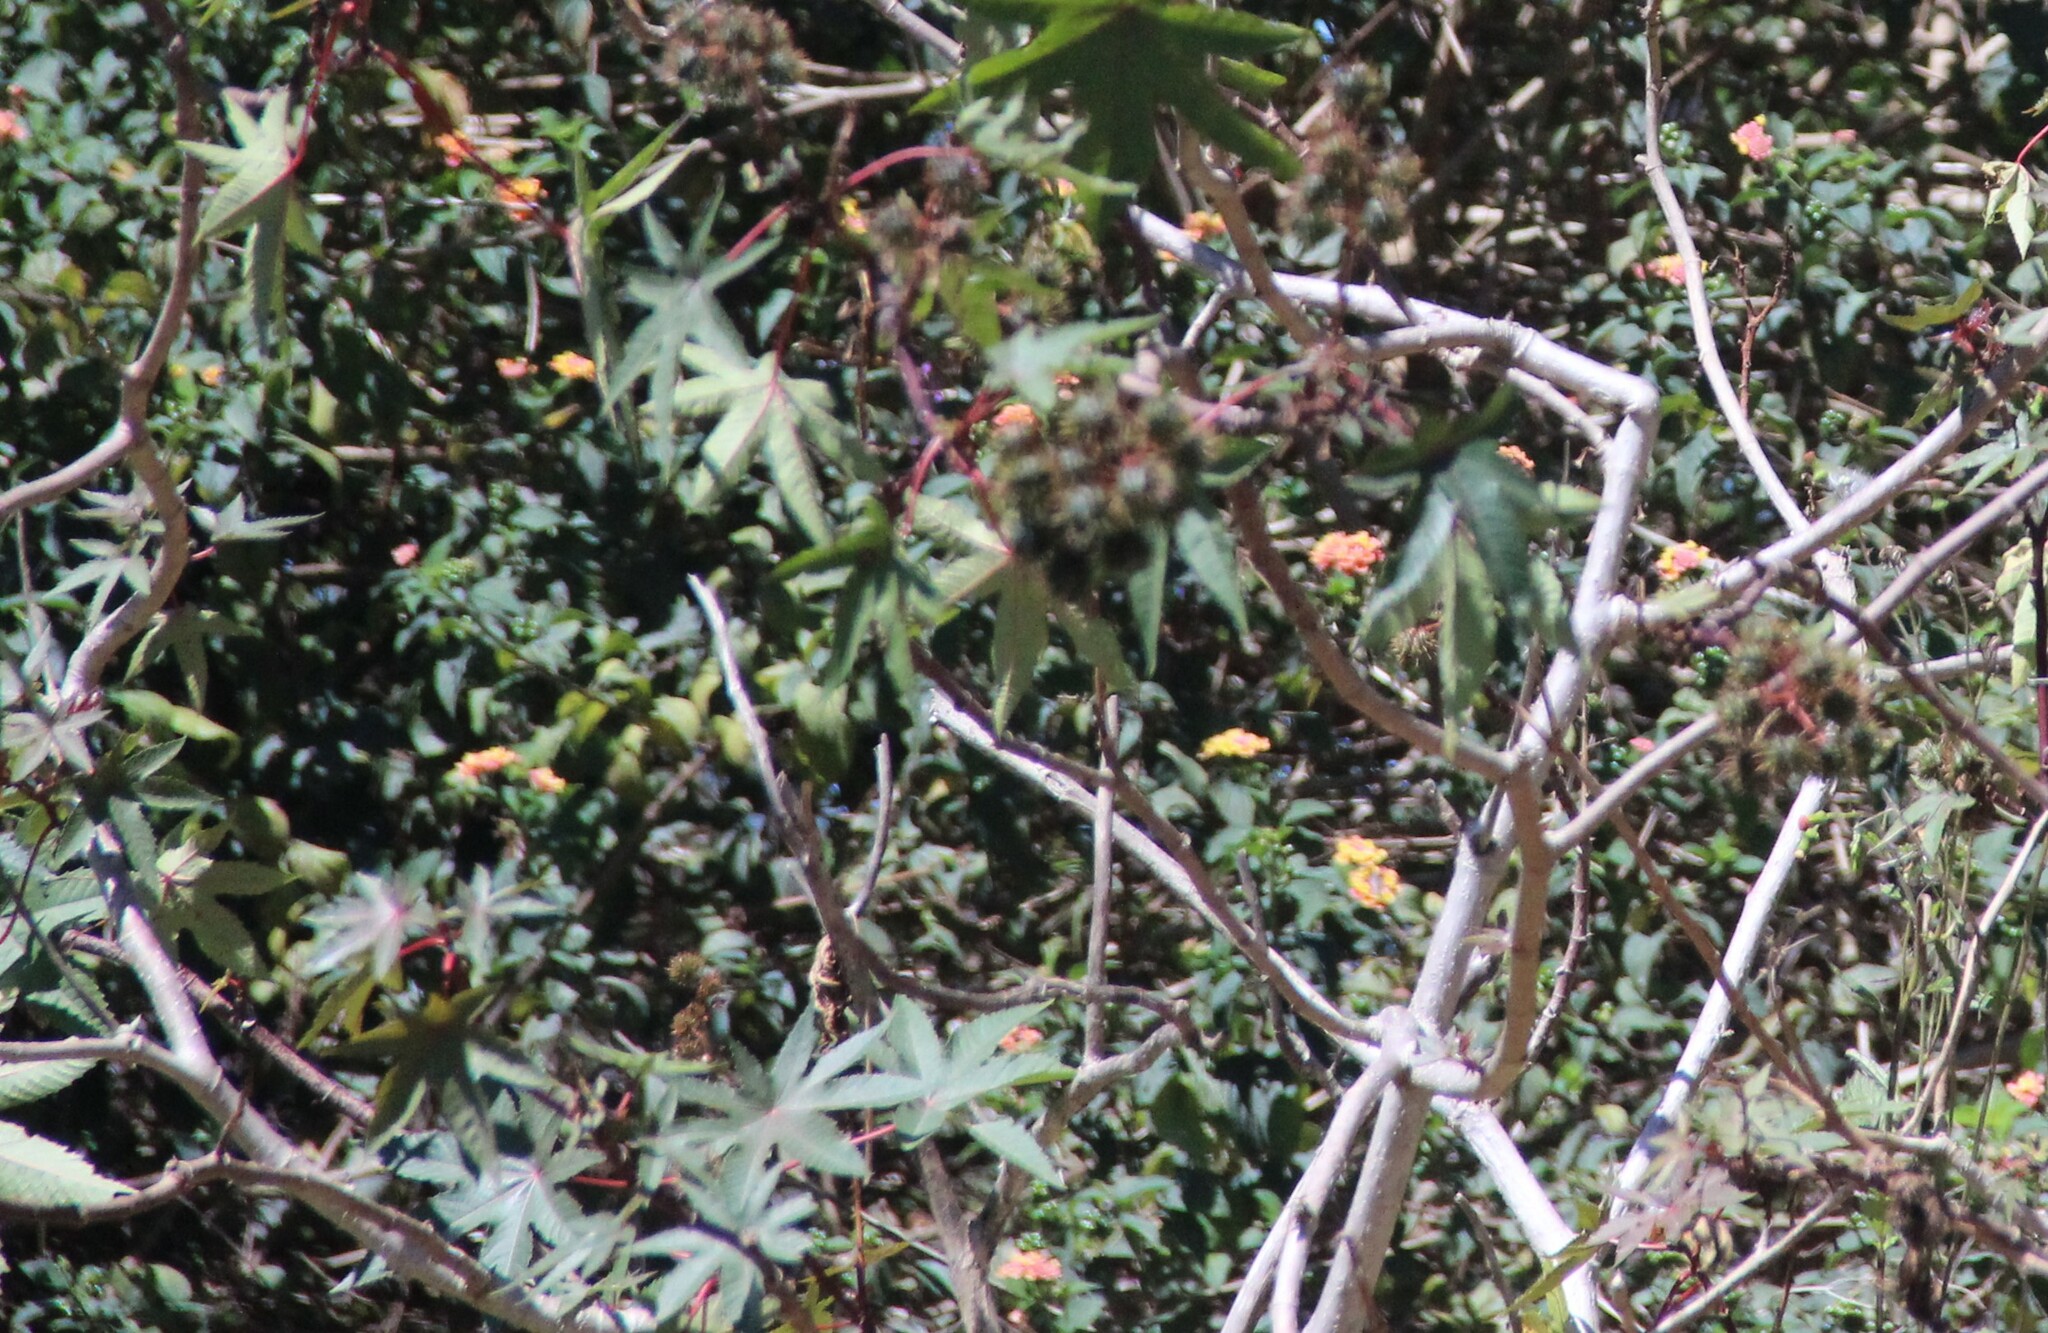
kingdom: Plantae
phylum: Tracheophyta
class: Magnoliopsida
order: Malpighiales
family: Euphorbiaceae
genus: Ricinus
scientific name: Ricinus communis
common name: Castor-oil-plant
